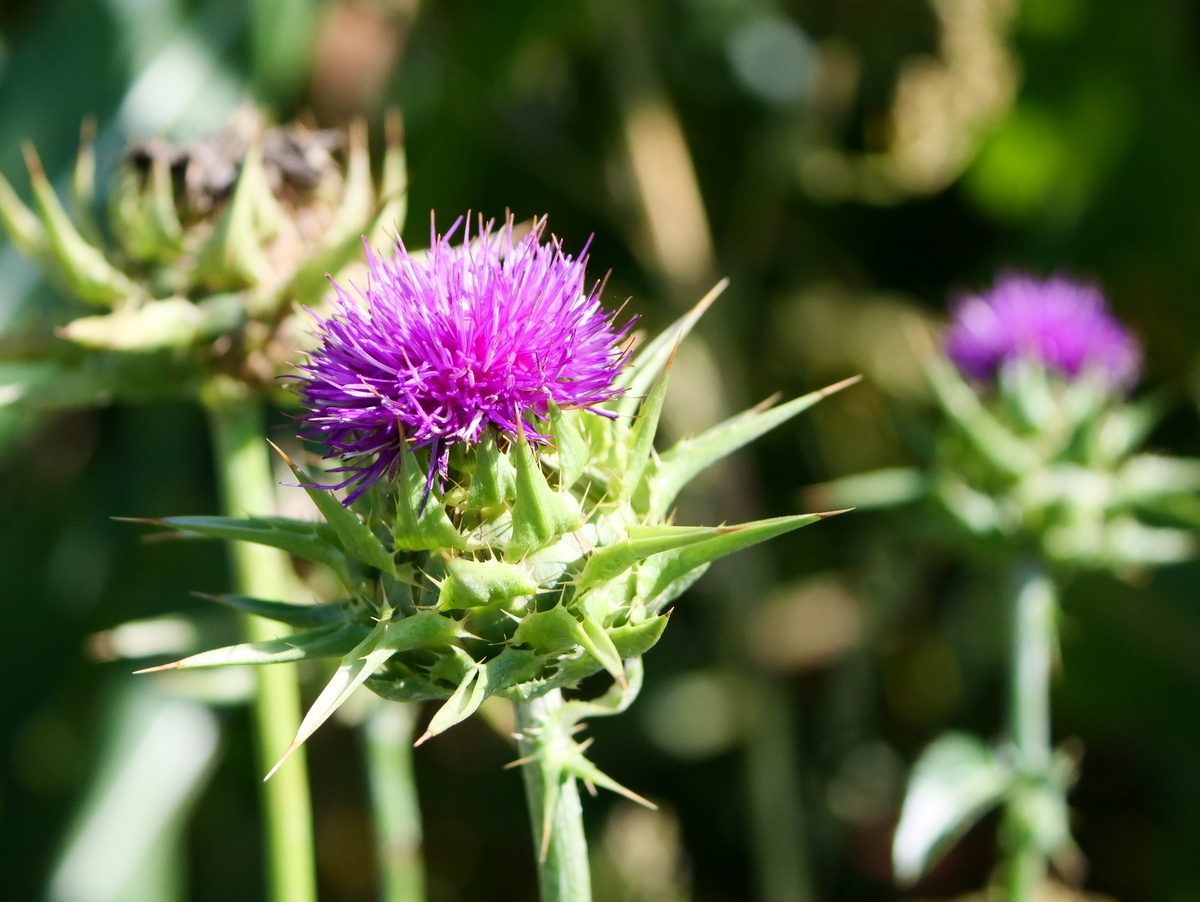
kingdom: Plantae
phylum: Tracheophyta
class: Magnoliopsida
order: Asterales
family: Asteraceae
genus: Silybum
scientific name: Silybum marianum
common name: Milk thistle
